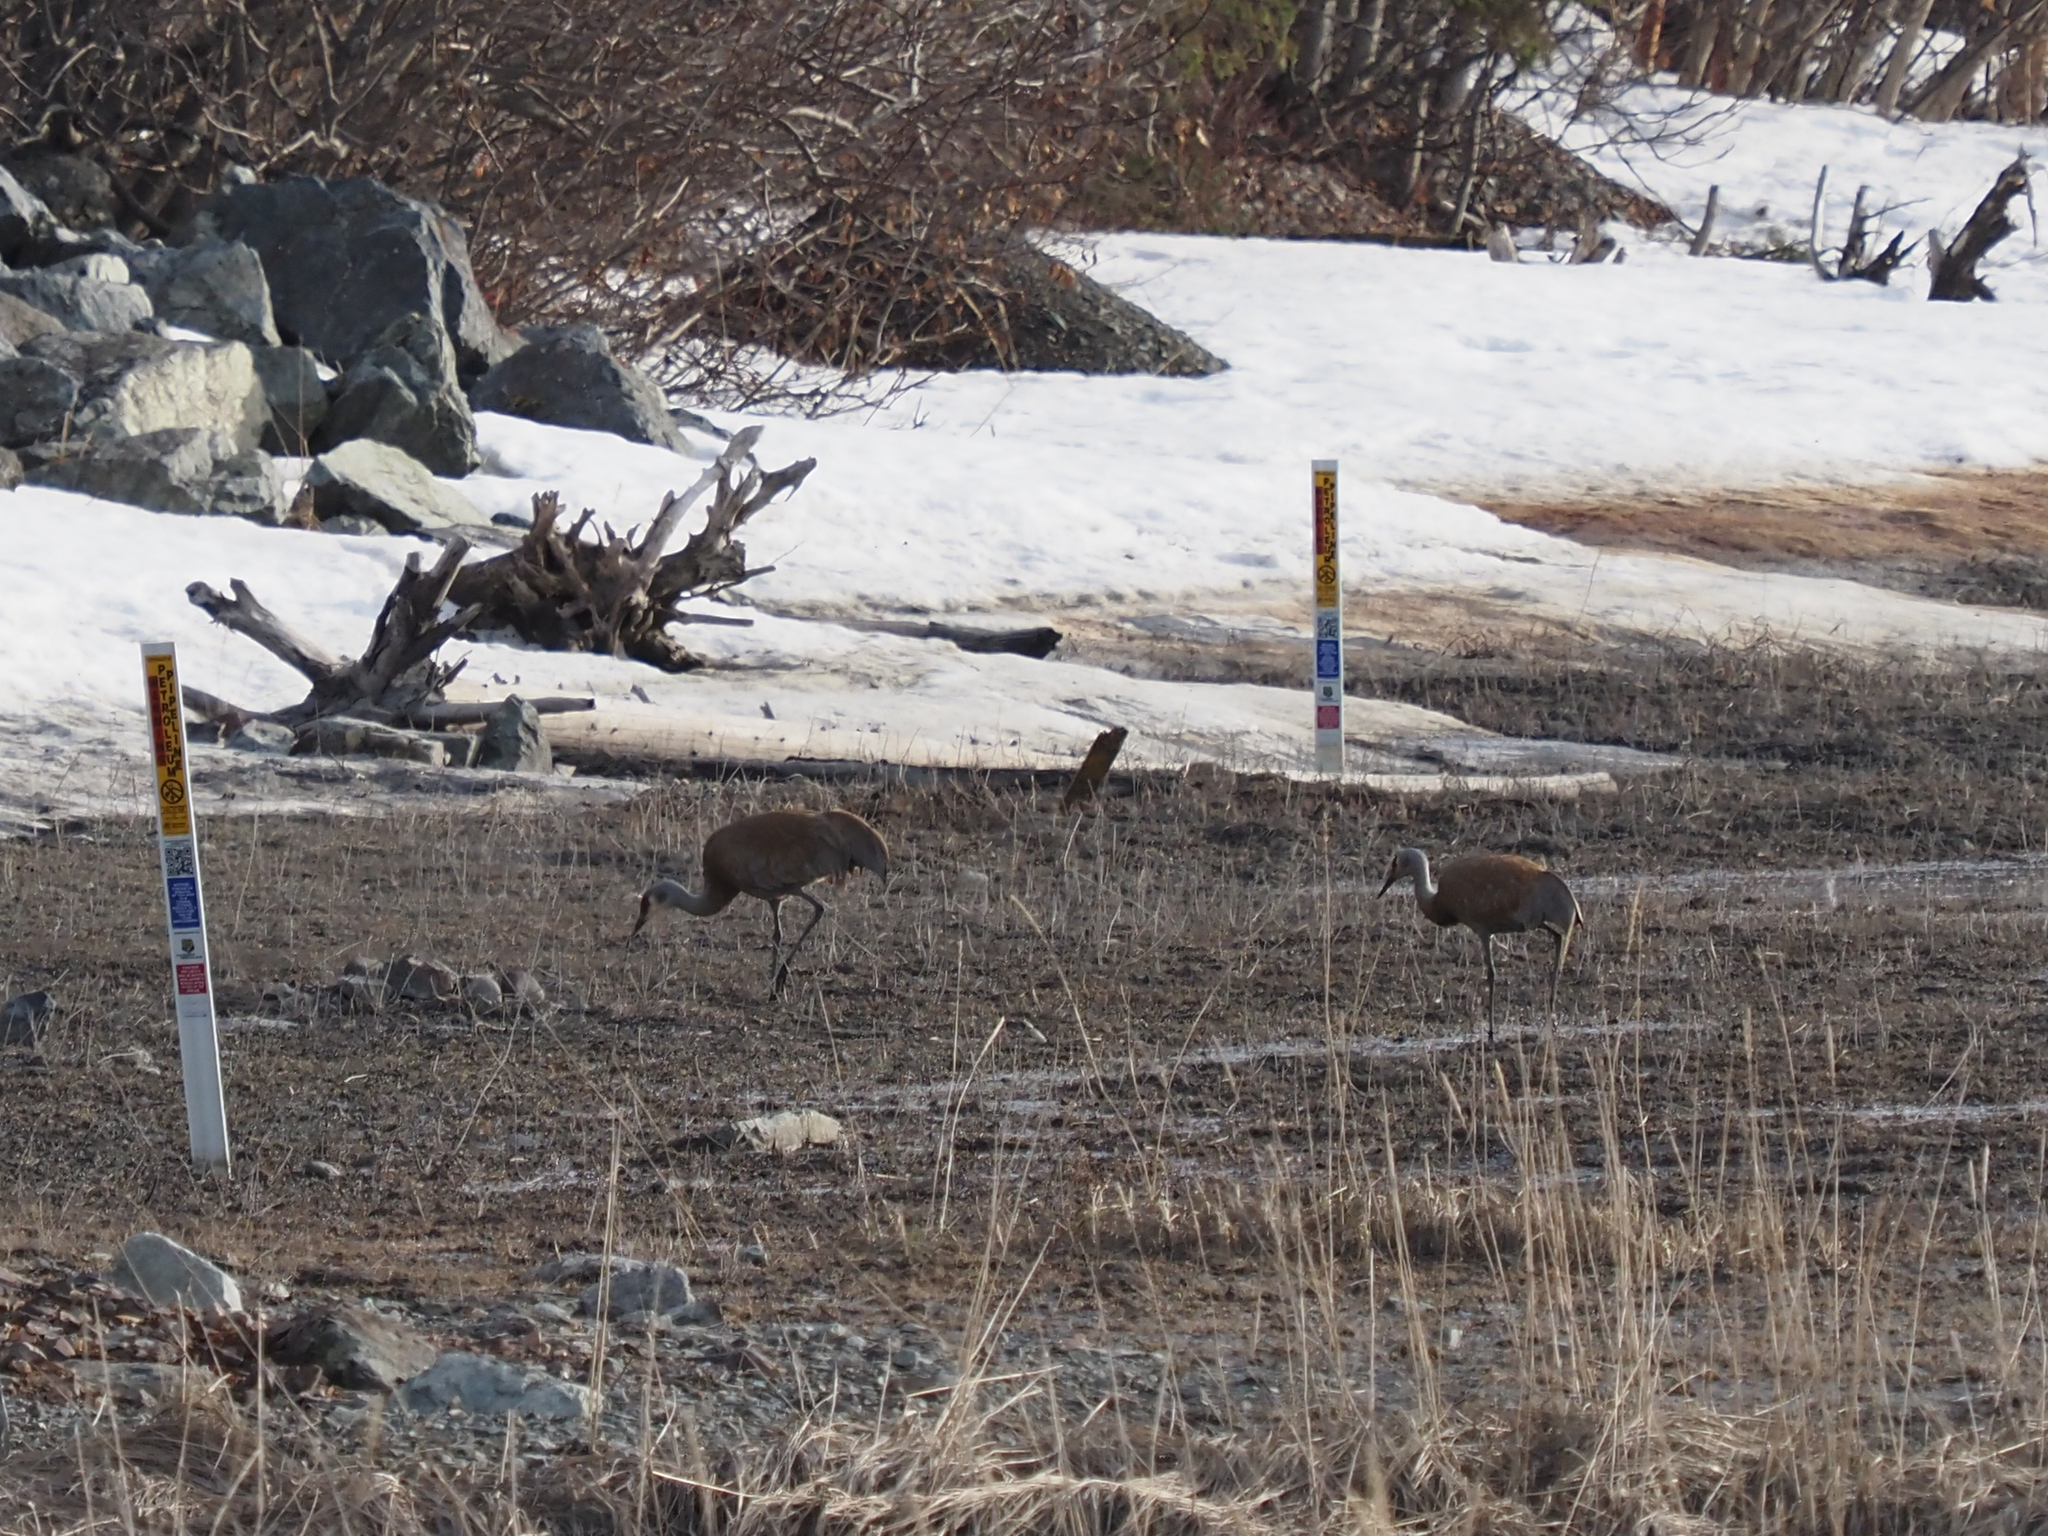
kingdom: Animalia
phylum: Chordata
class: Aves
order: Gruiformes
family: Gruidae
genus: Grus
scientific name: Grus canadensis
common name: Sandhill crane
